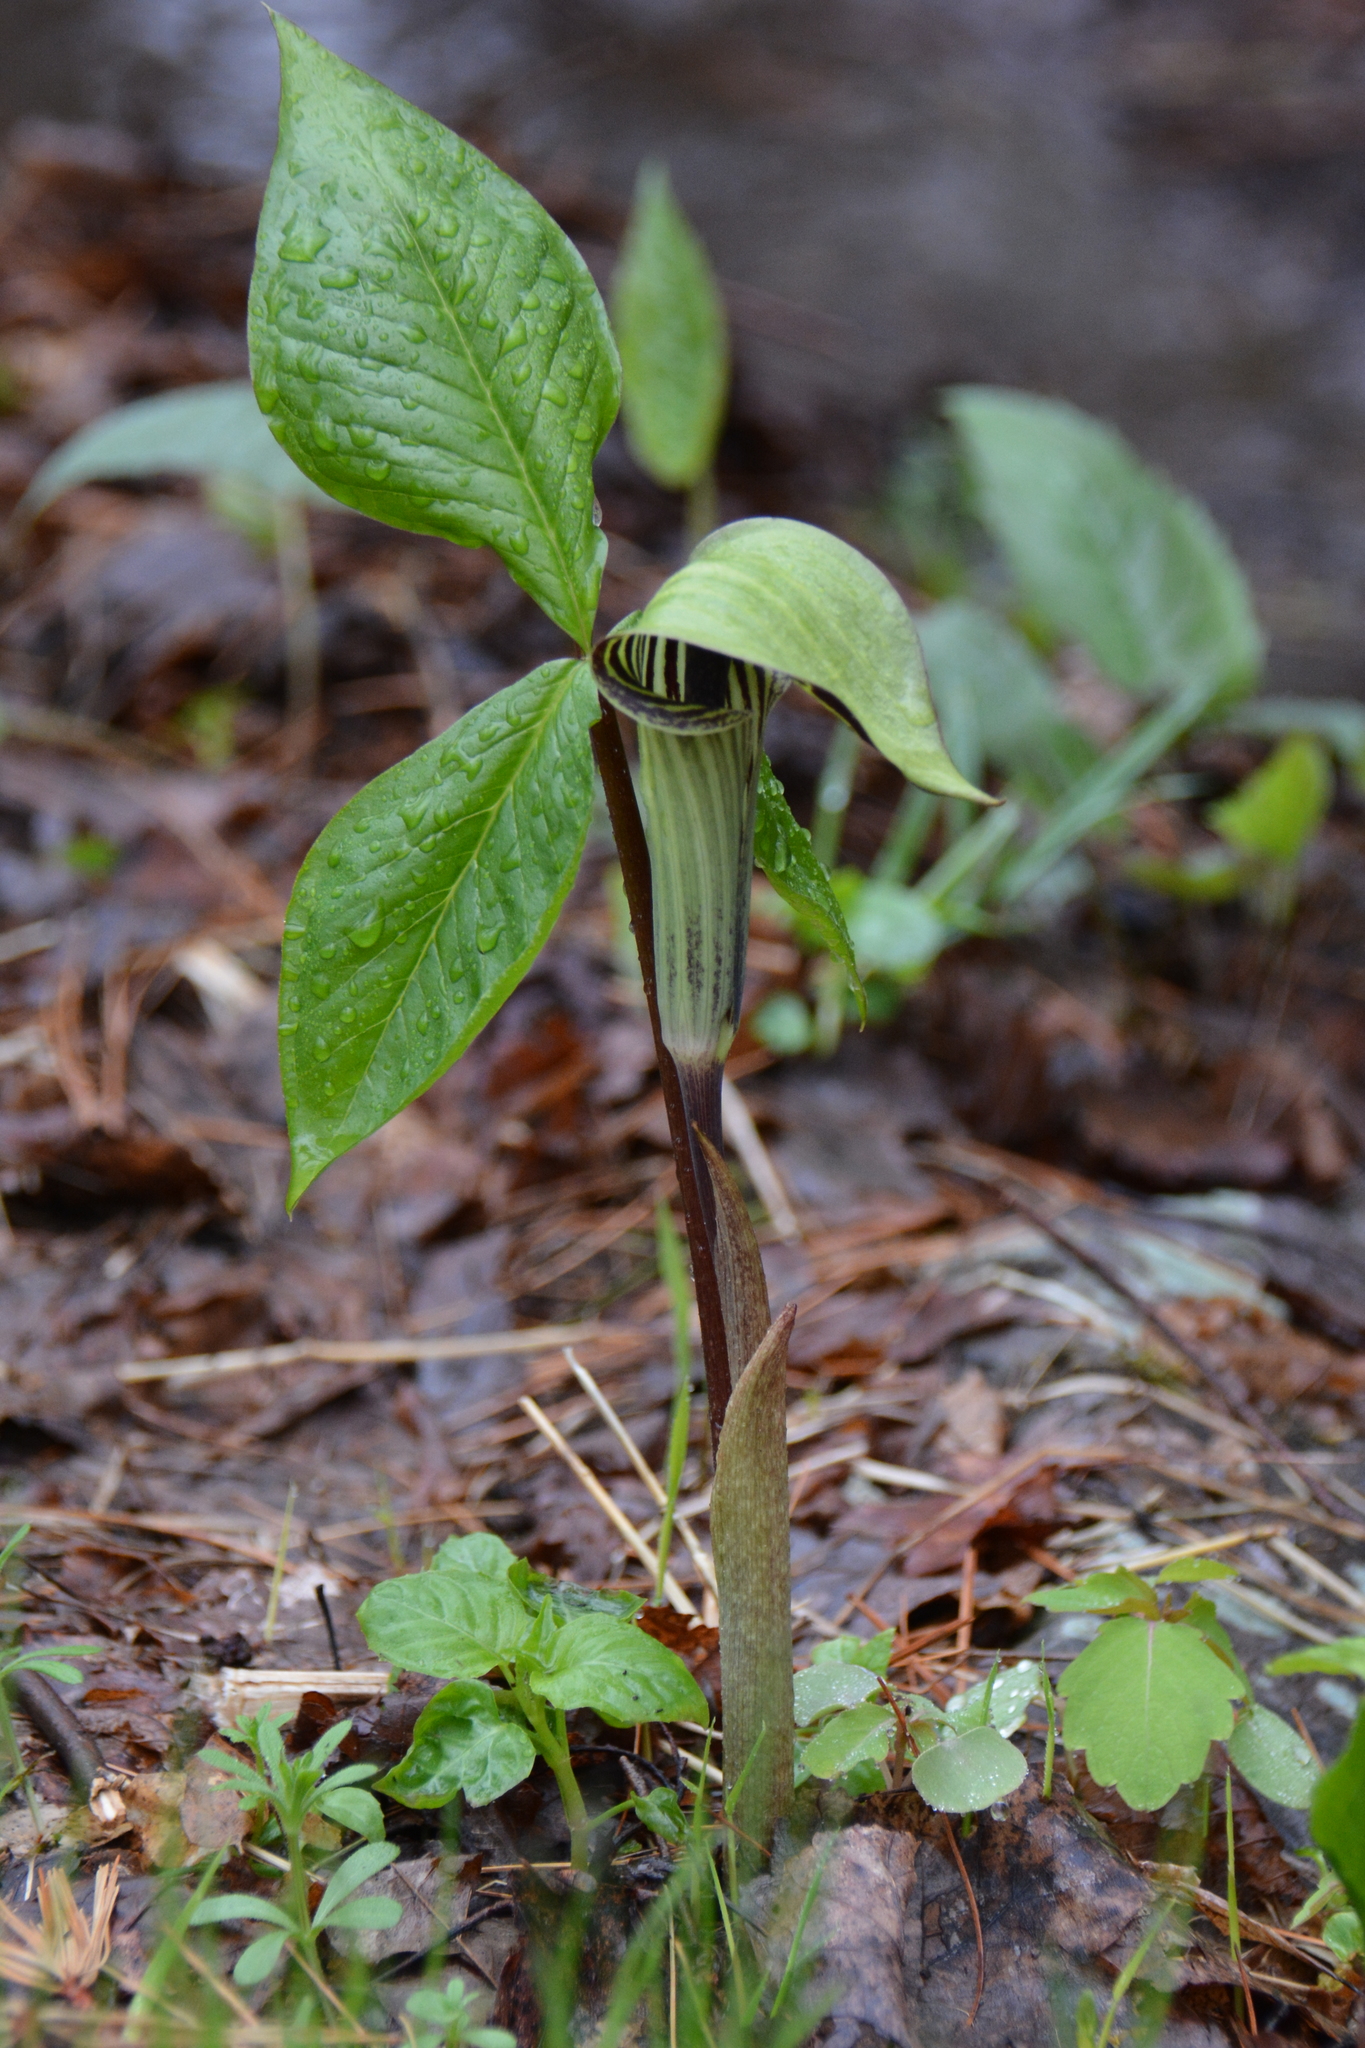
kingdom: Plantae
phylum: Tracheophyta
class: Liliopsida
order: Alismatales
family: Araceae
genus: Arisaema
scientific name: Arisaema triphyllum
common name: Jack-in-the-pulpit
